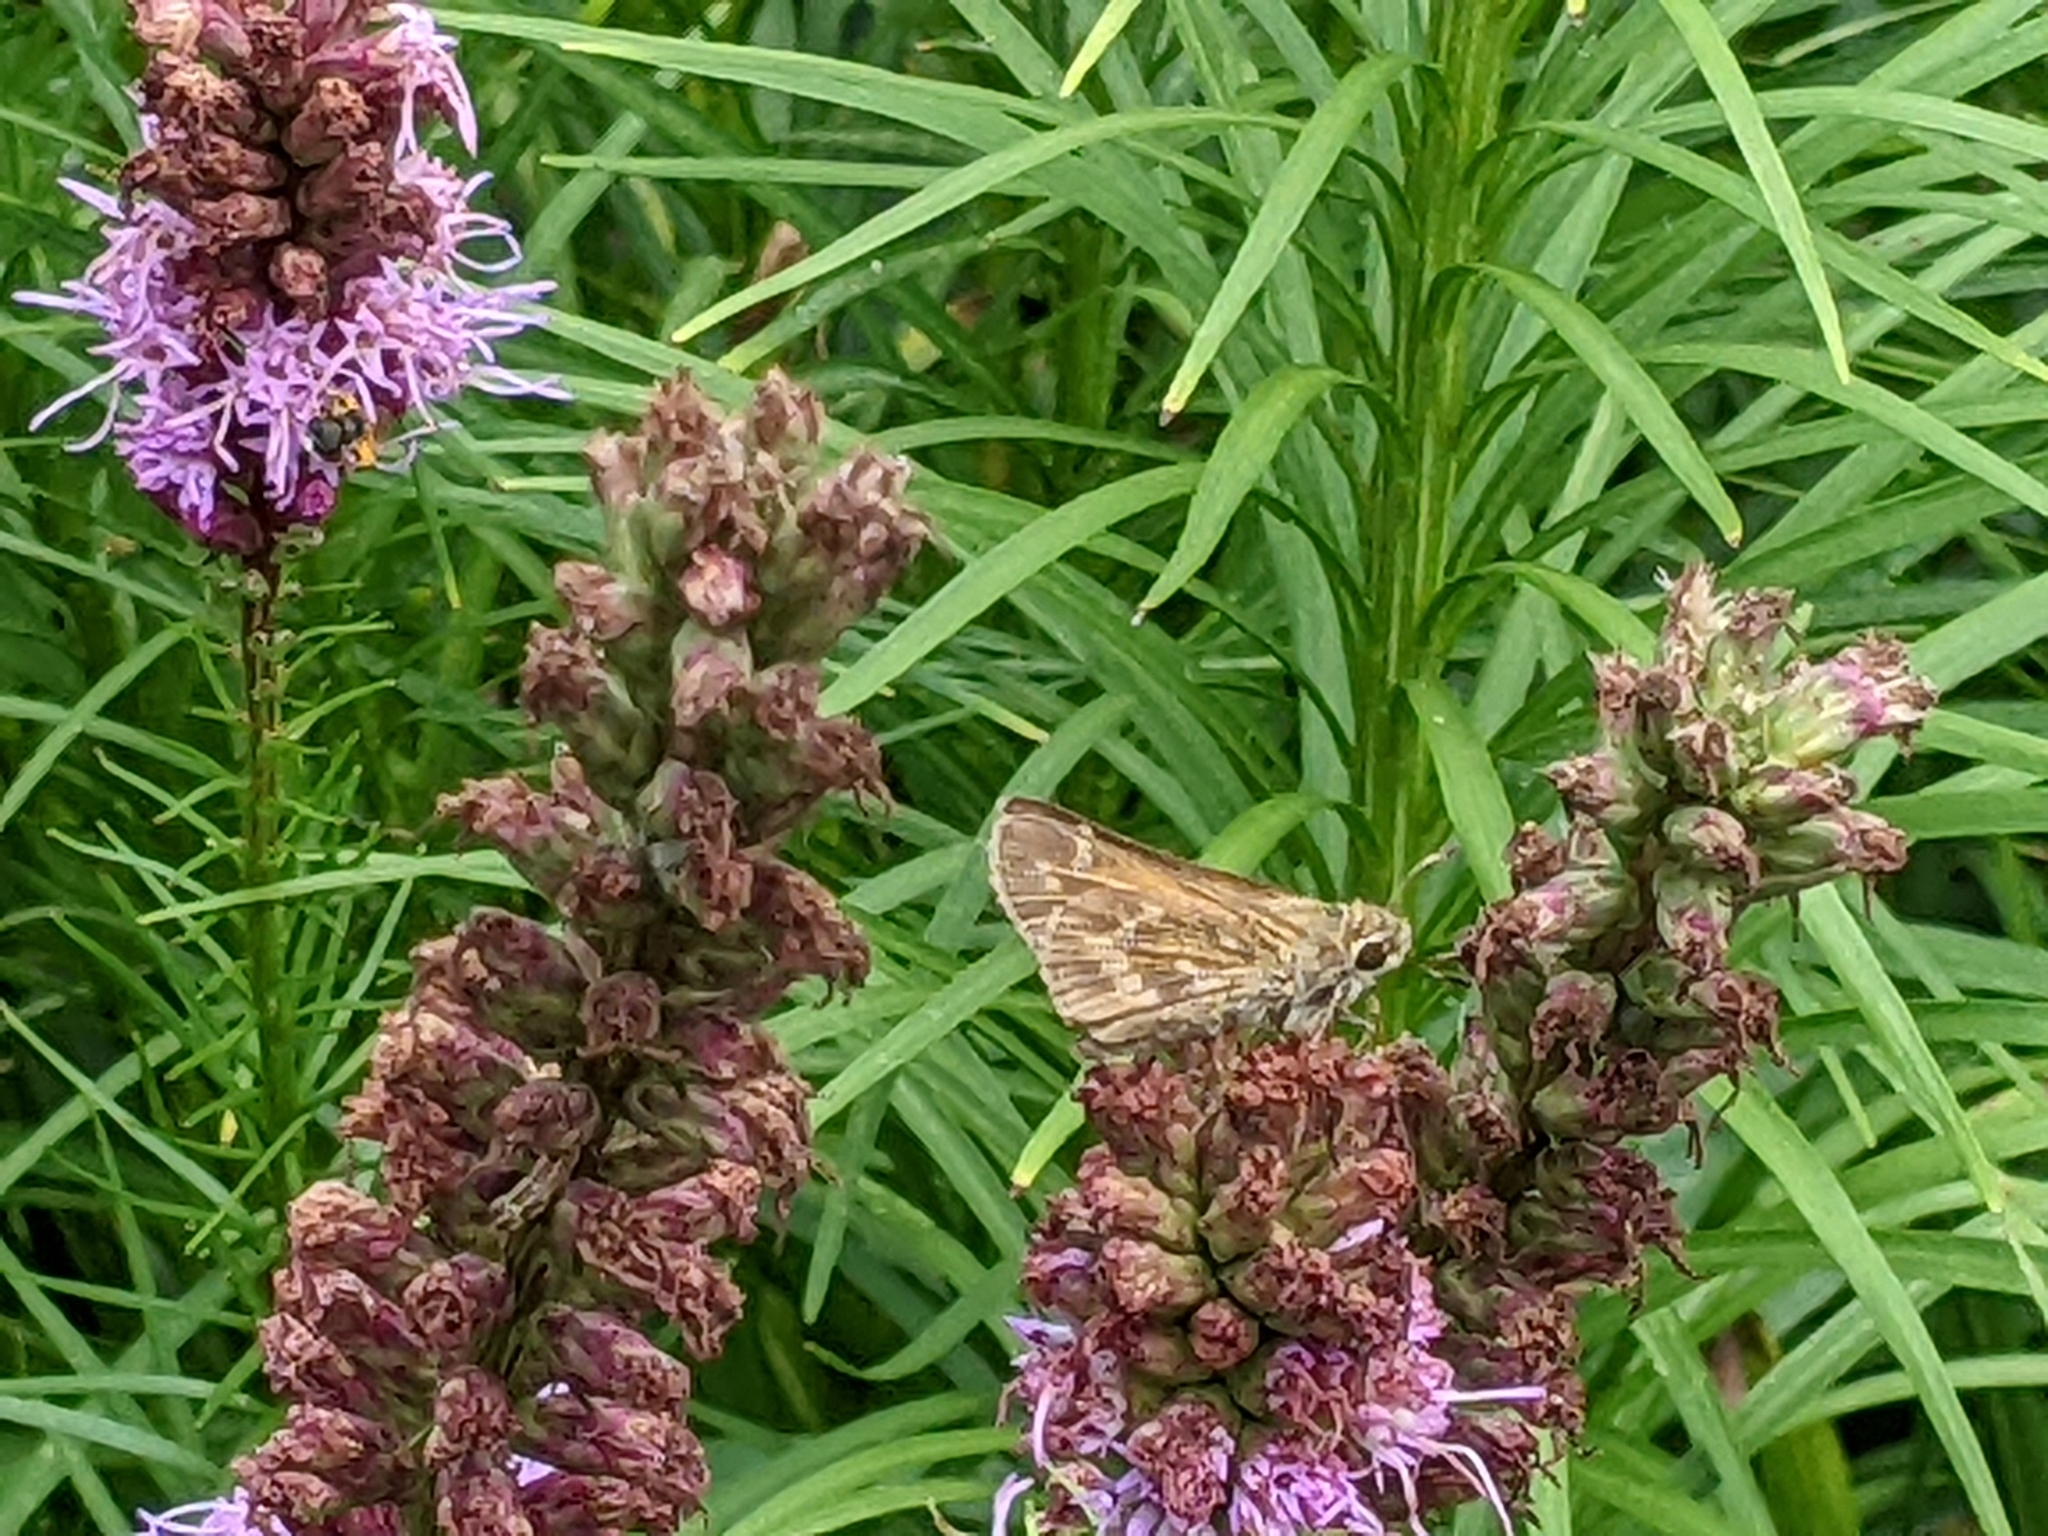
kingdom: Animalia
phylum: Arthropoda
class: Insecta
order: Lepidoptera
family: Hesperiidae
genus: Atalopedes
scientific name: Atalopedes
